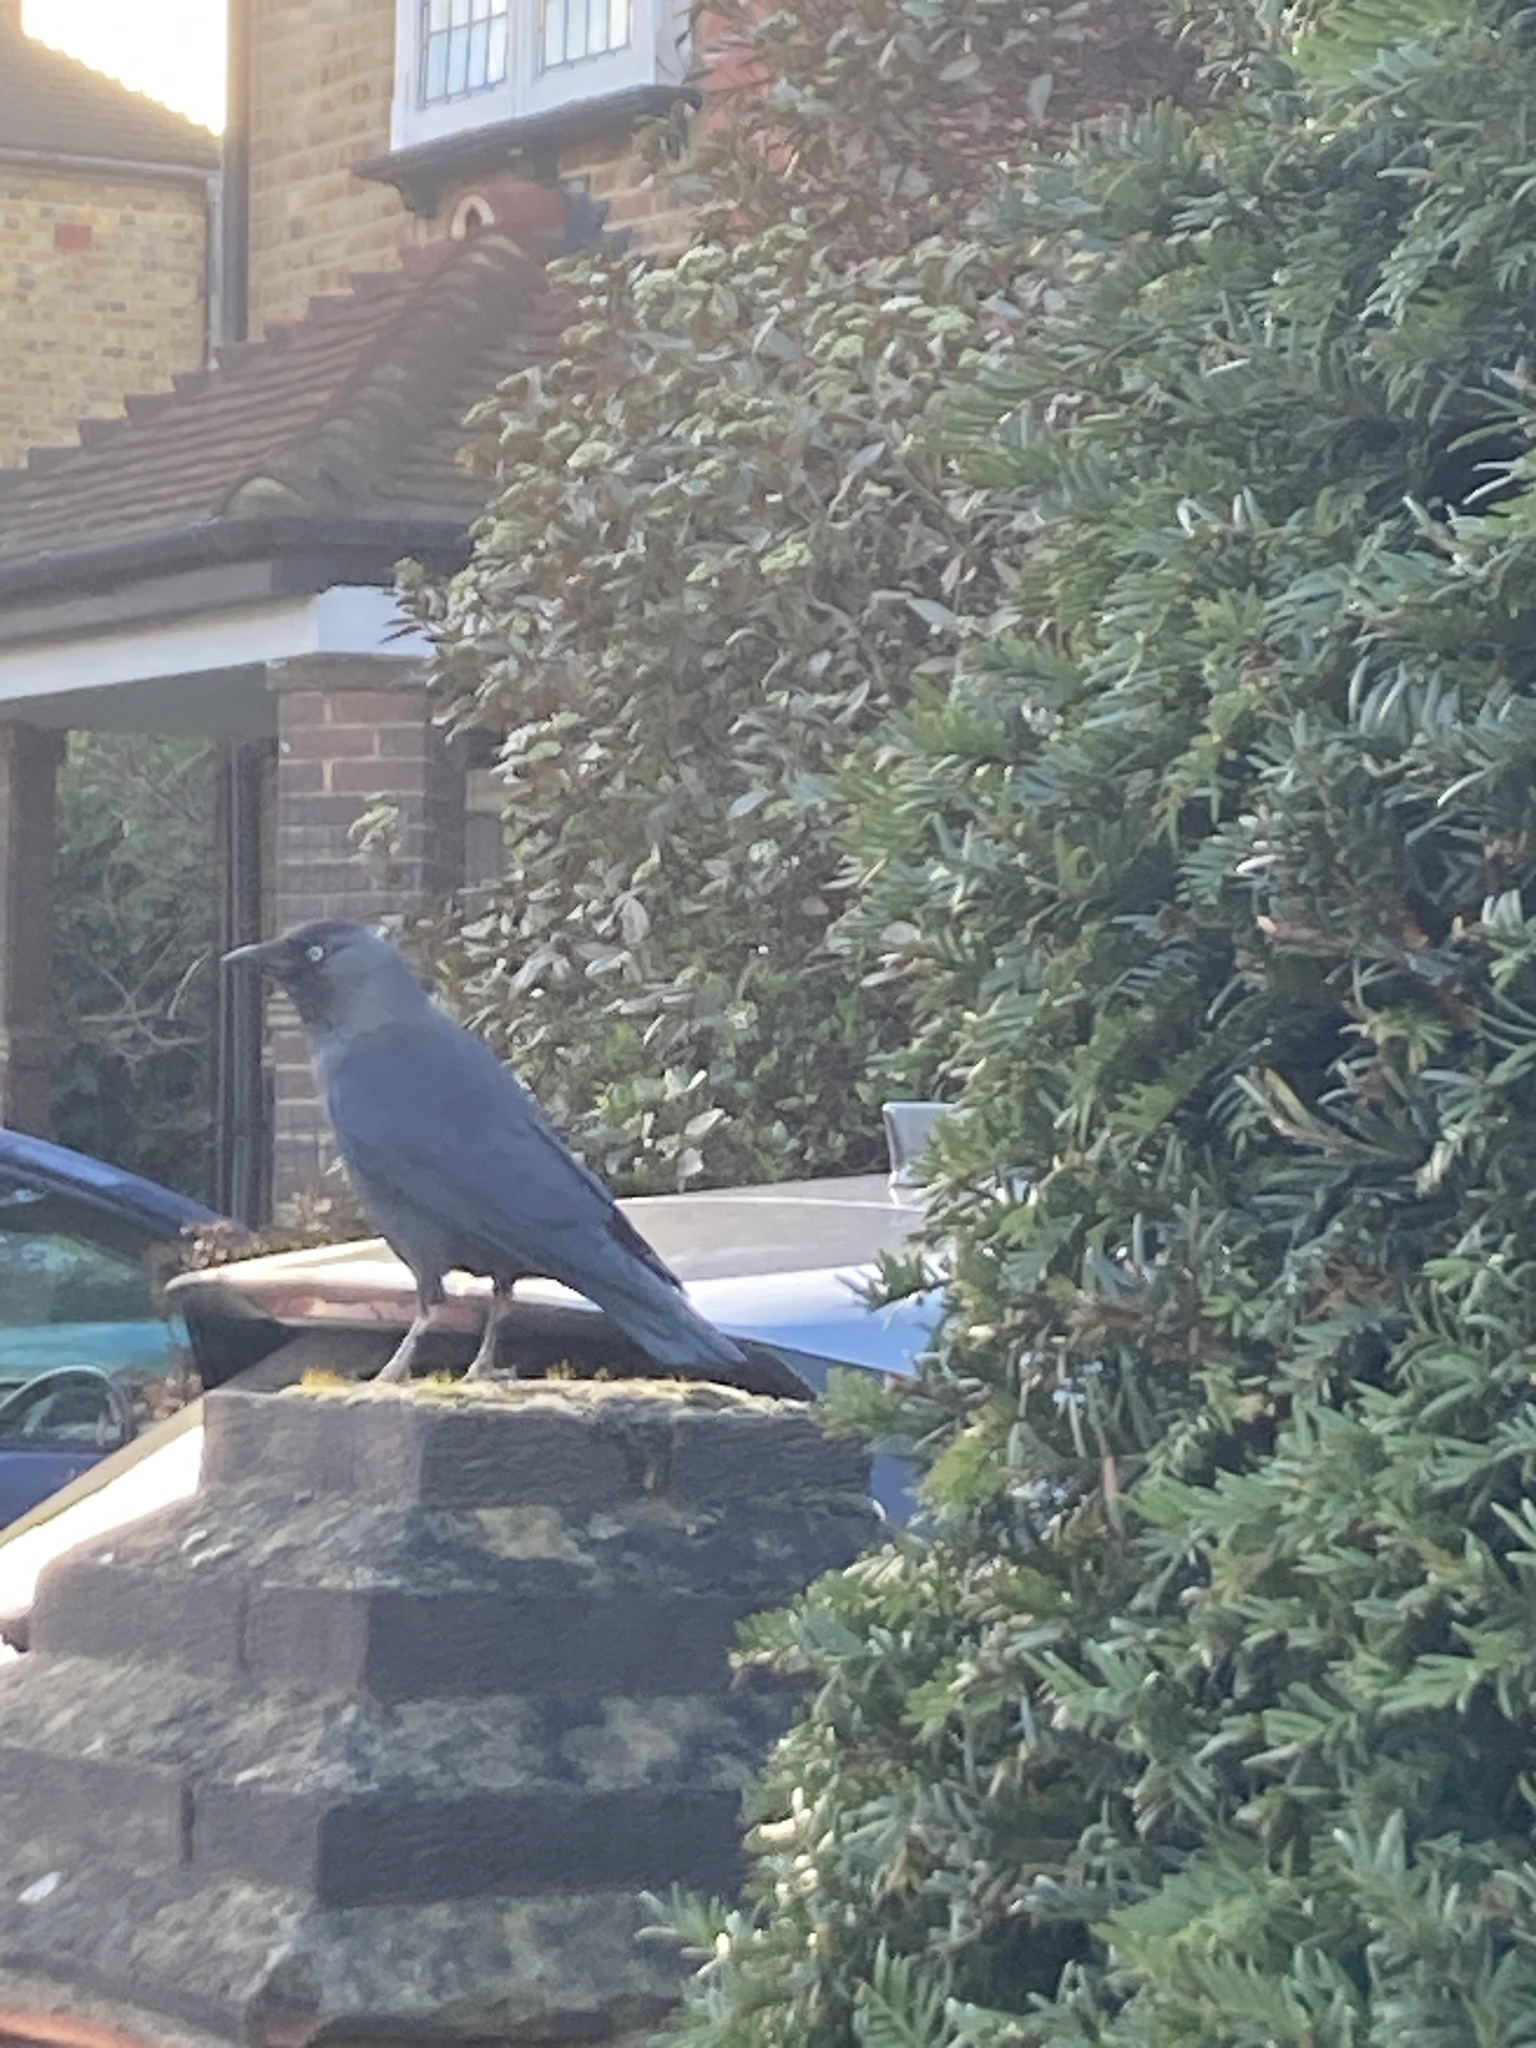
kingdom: Animalia
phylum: Chordata
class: Aves
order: Passeriformes
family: Corvidae
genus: Coloeus
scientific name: Coloeus monedula
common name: Western jackdaw
